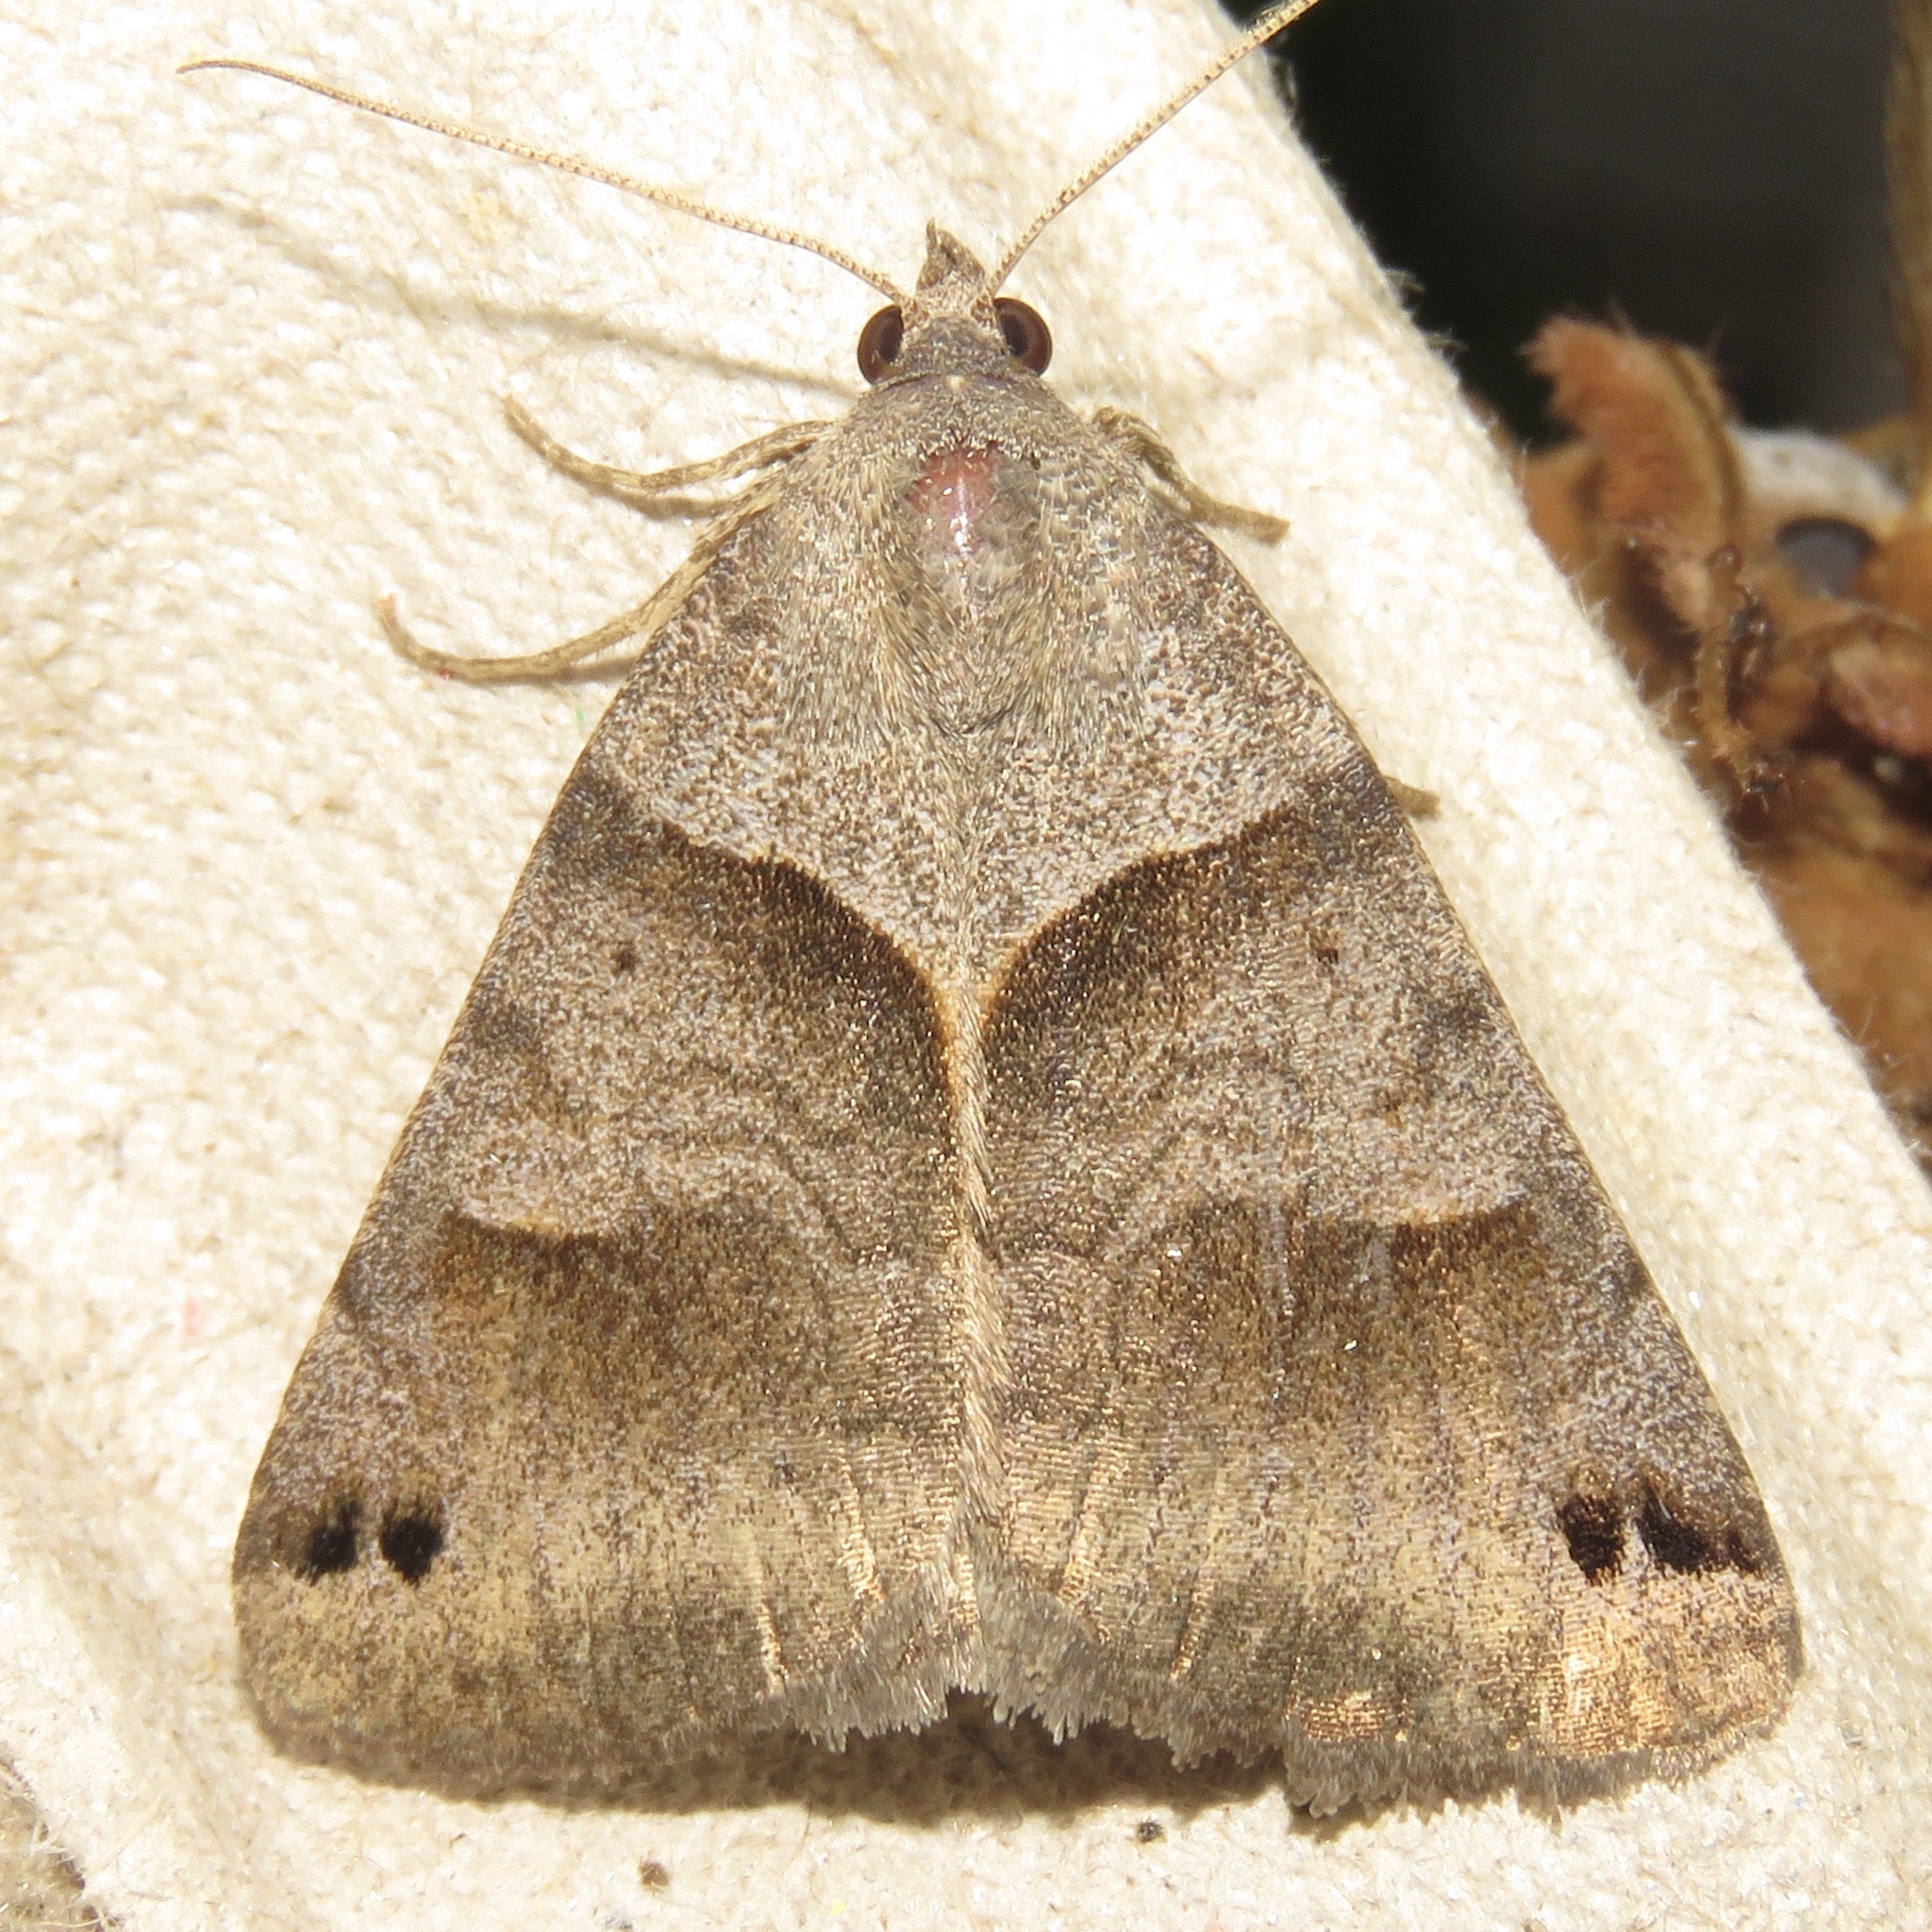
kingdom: Animalia
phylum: Arthropoda
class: Insecta
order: Lepidoptera
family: Erebidae
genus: Caenurgina
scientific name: Caenurgina crassiuscula
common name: Double-barred
